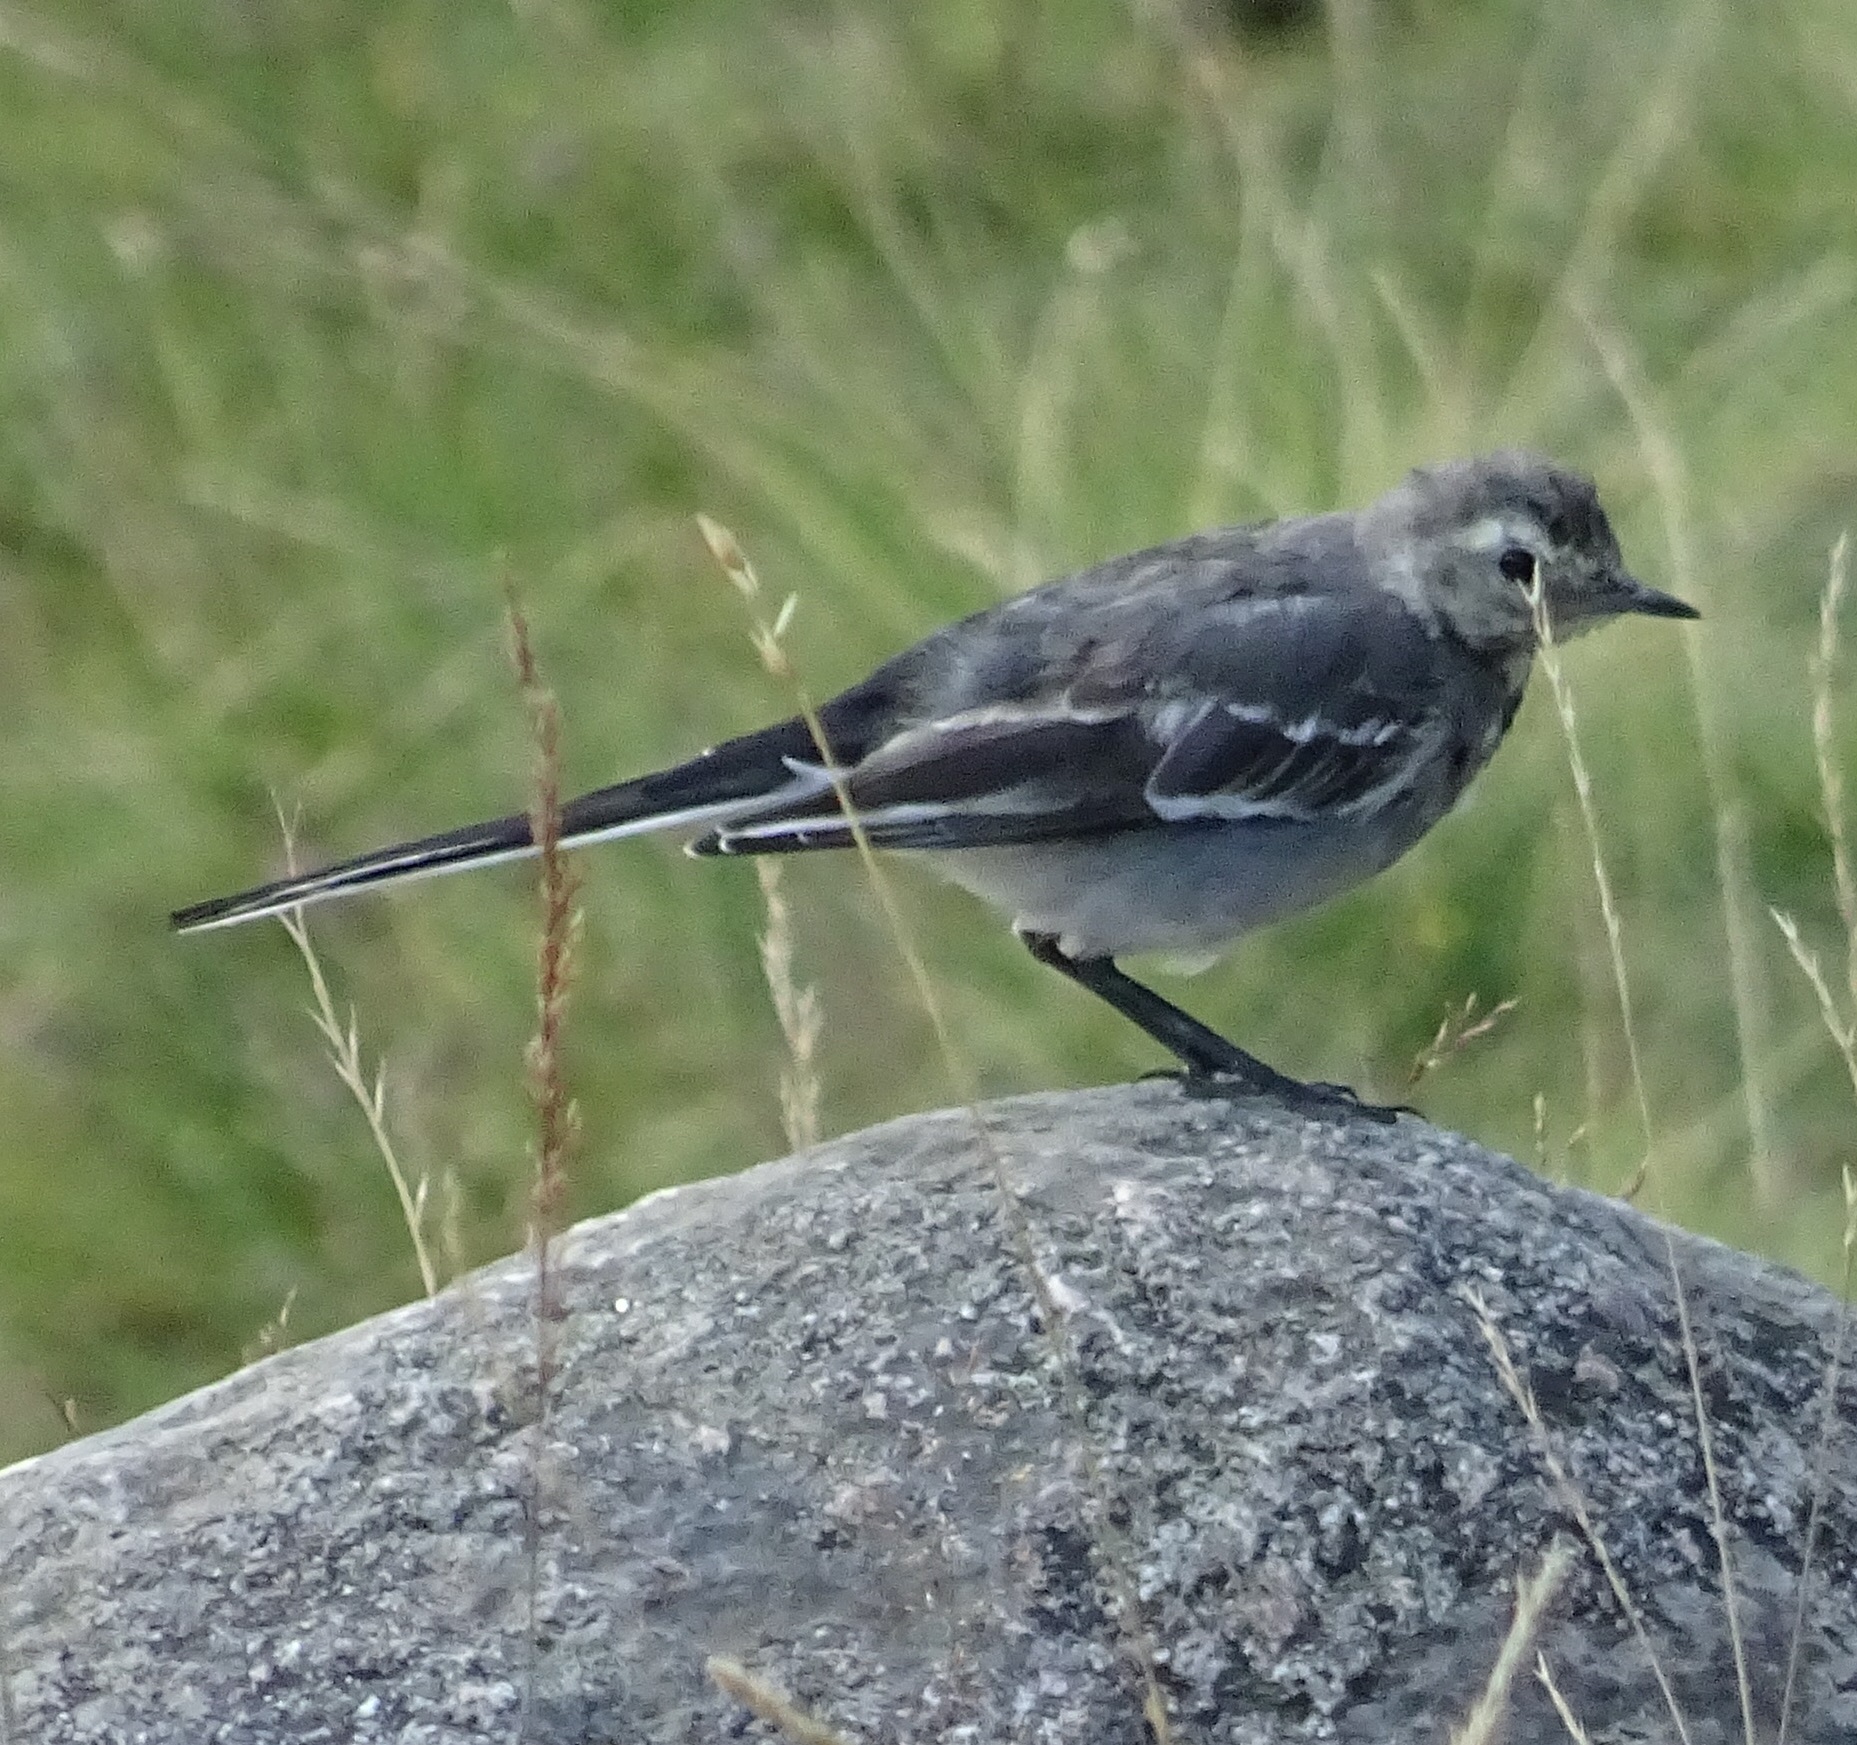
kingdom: Animalia
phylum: Chordata
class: Aves
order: Passeriformes
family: Motacillidae
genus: Motacilla
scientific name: Motacilla alba
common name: White wagtail
